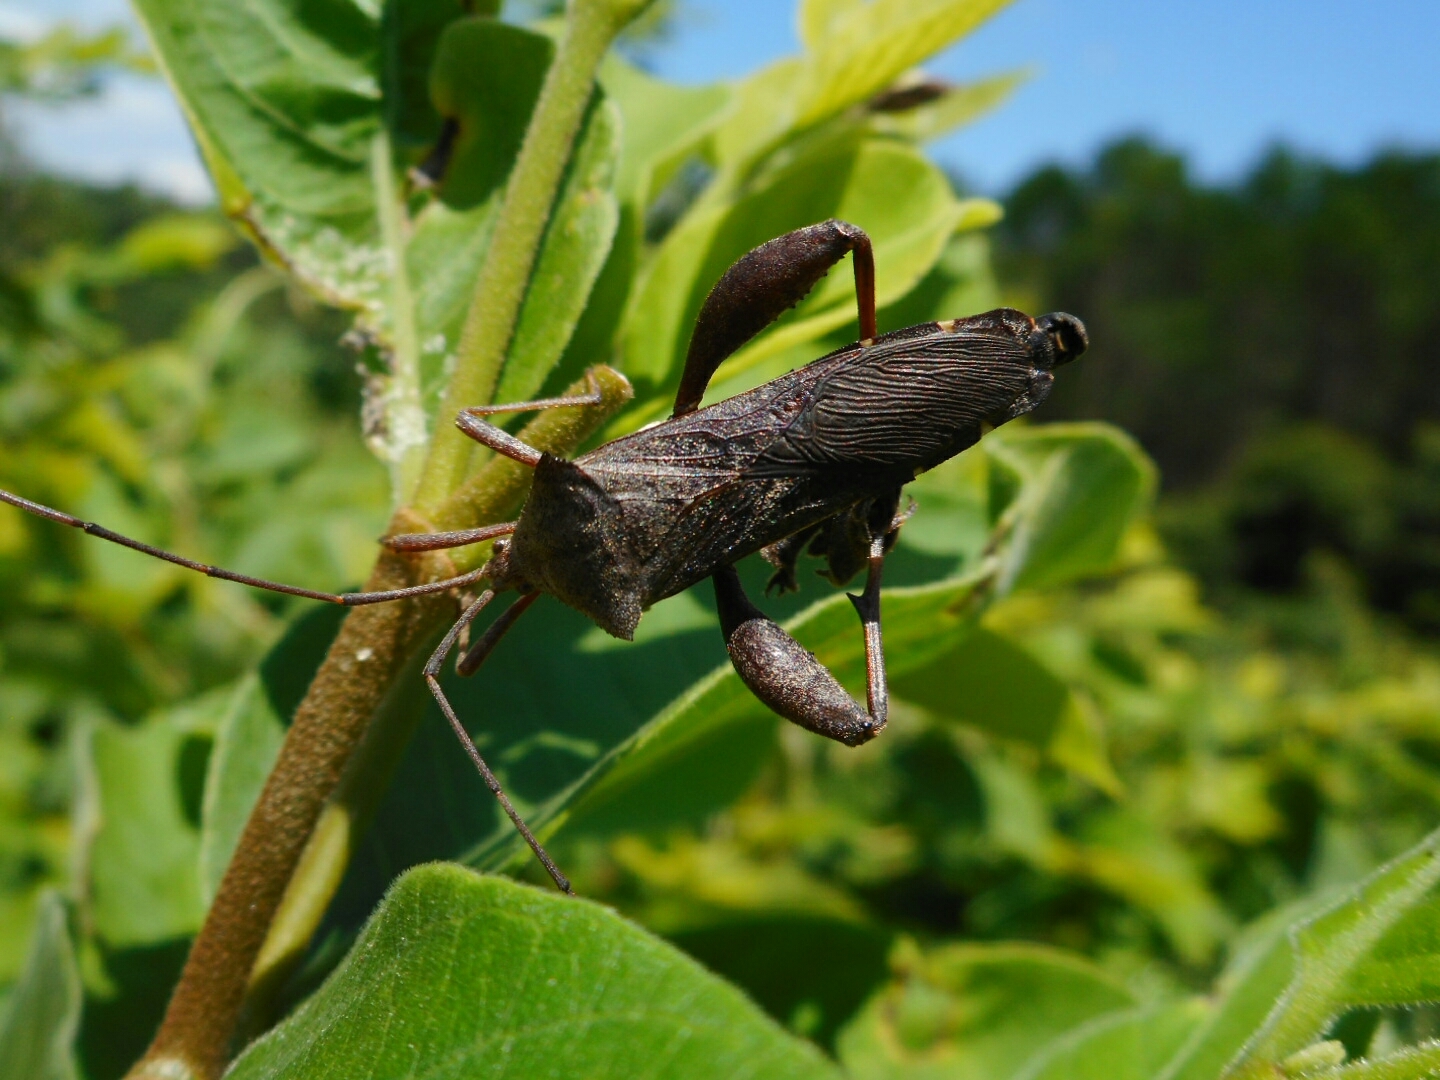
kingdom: Animalia
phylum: Arthropoda
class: Insecta
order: Hemiptera
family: Coreidae
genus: Mictis
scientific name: Mictis longicornis
